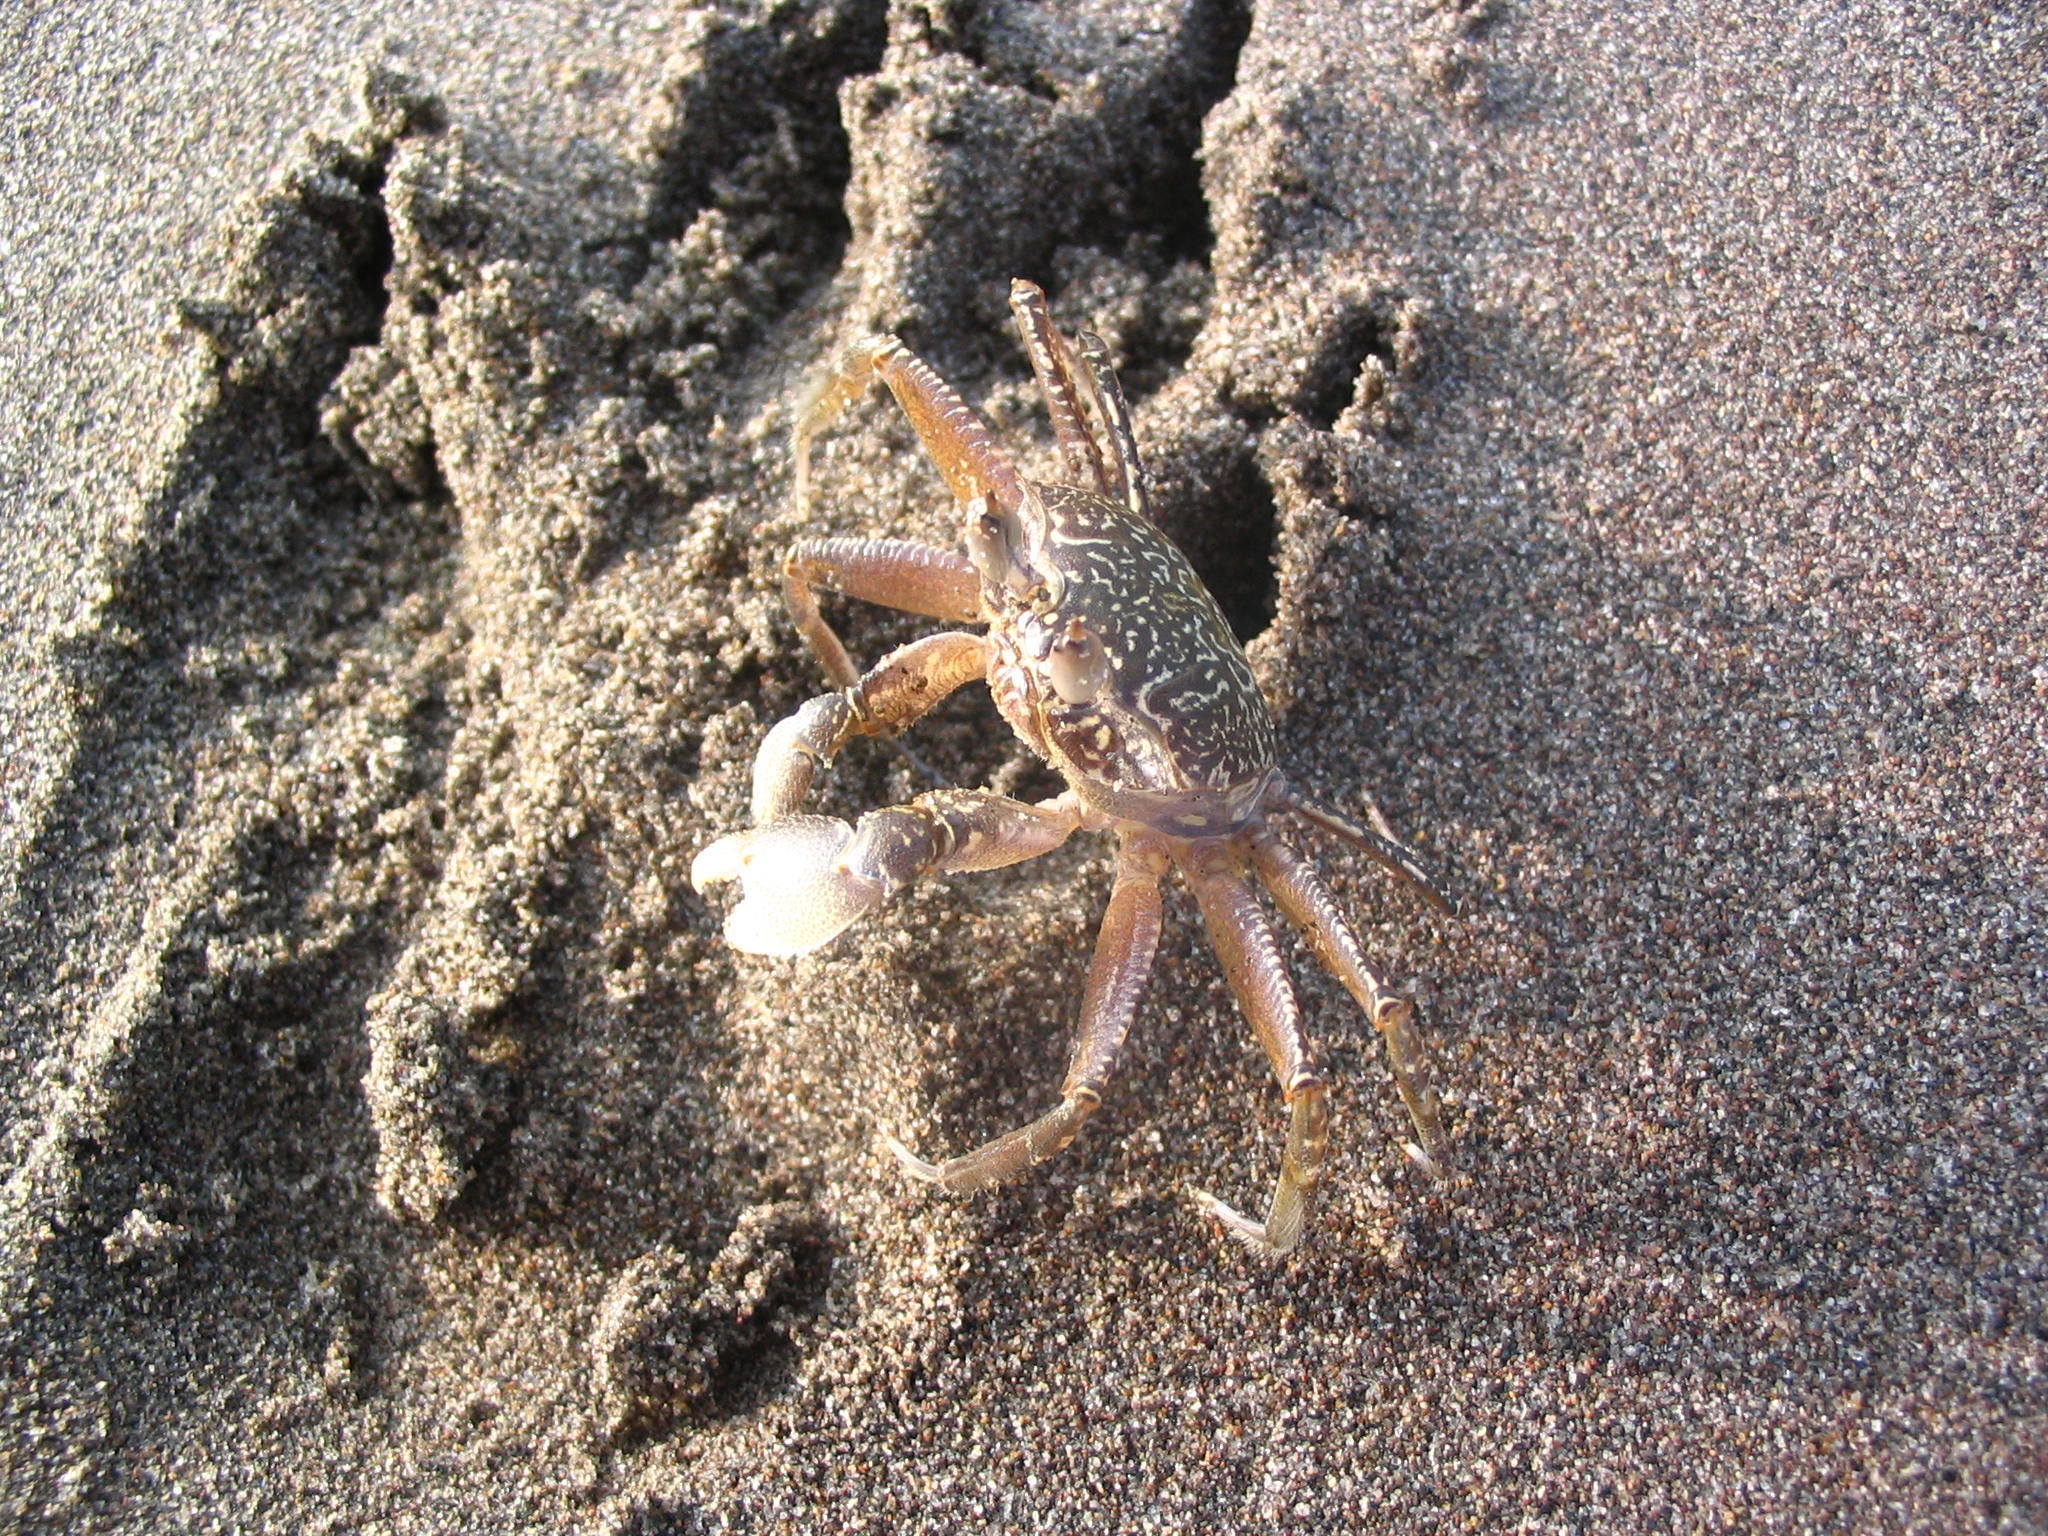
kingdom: Animalia
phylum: Arthropoda
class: Malacostraca
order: Decapoda
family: Ocypodidae
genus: Ocypode
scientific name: Ocypode gaudichaudii
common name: Pacific ghost crab
